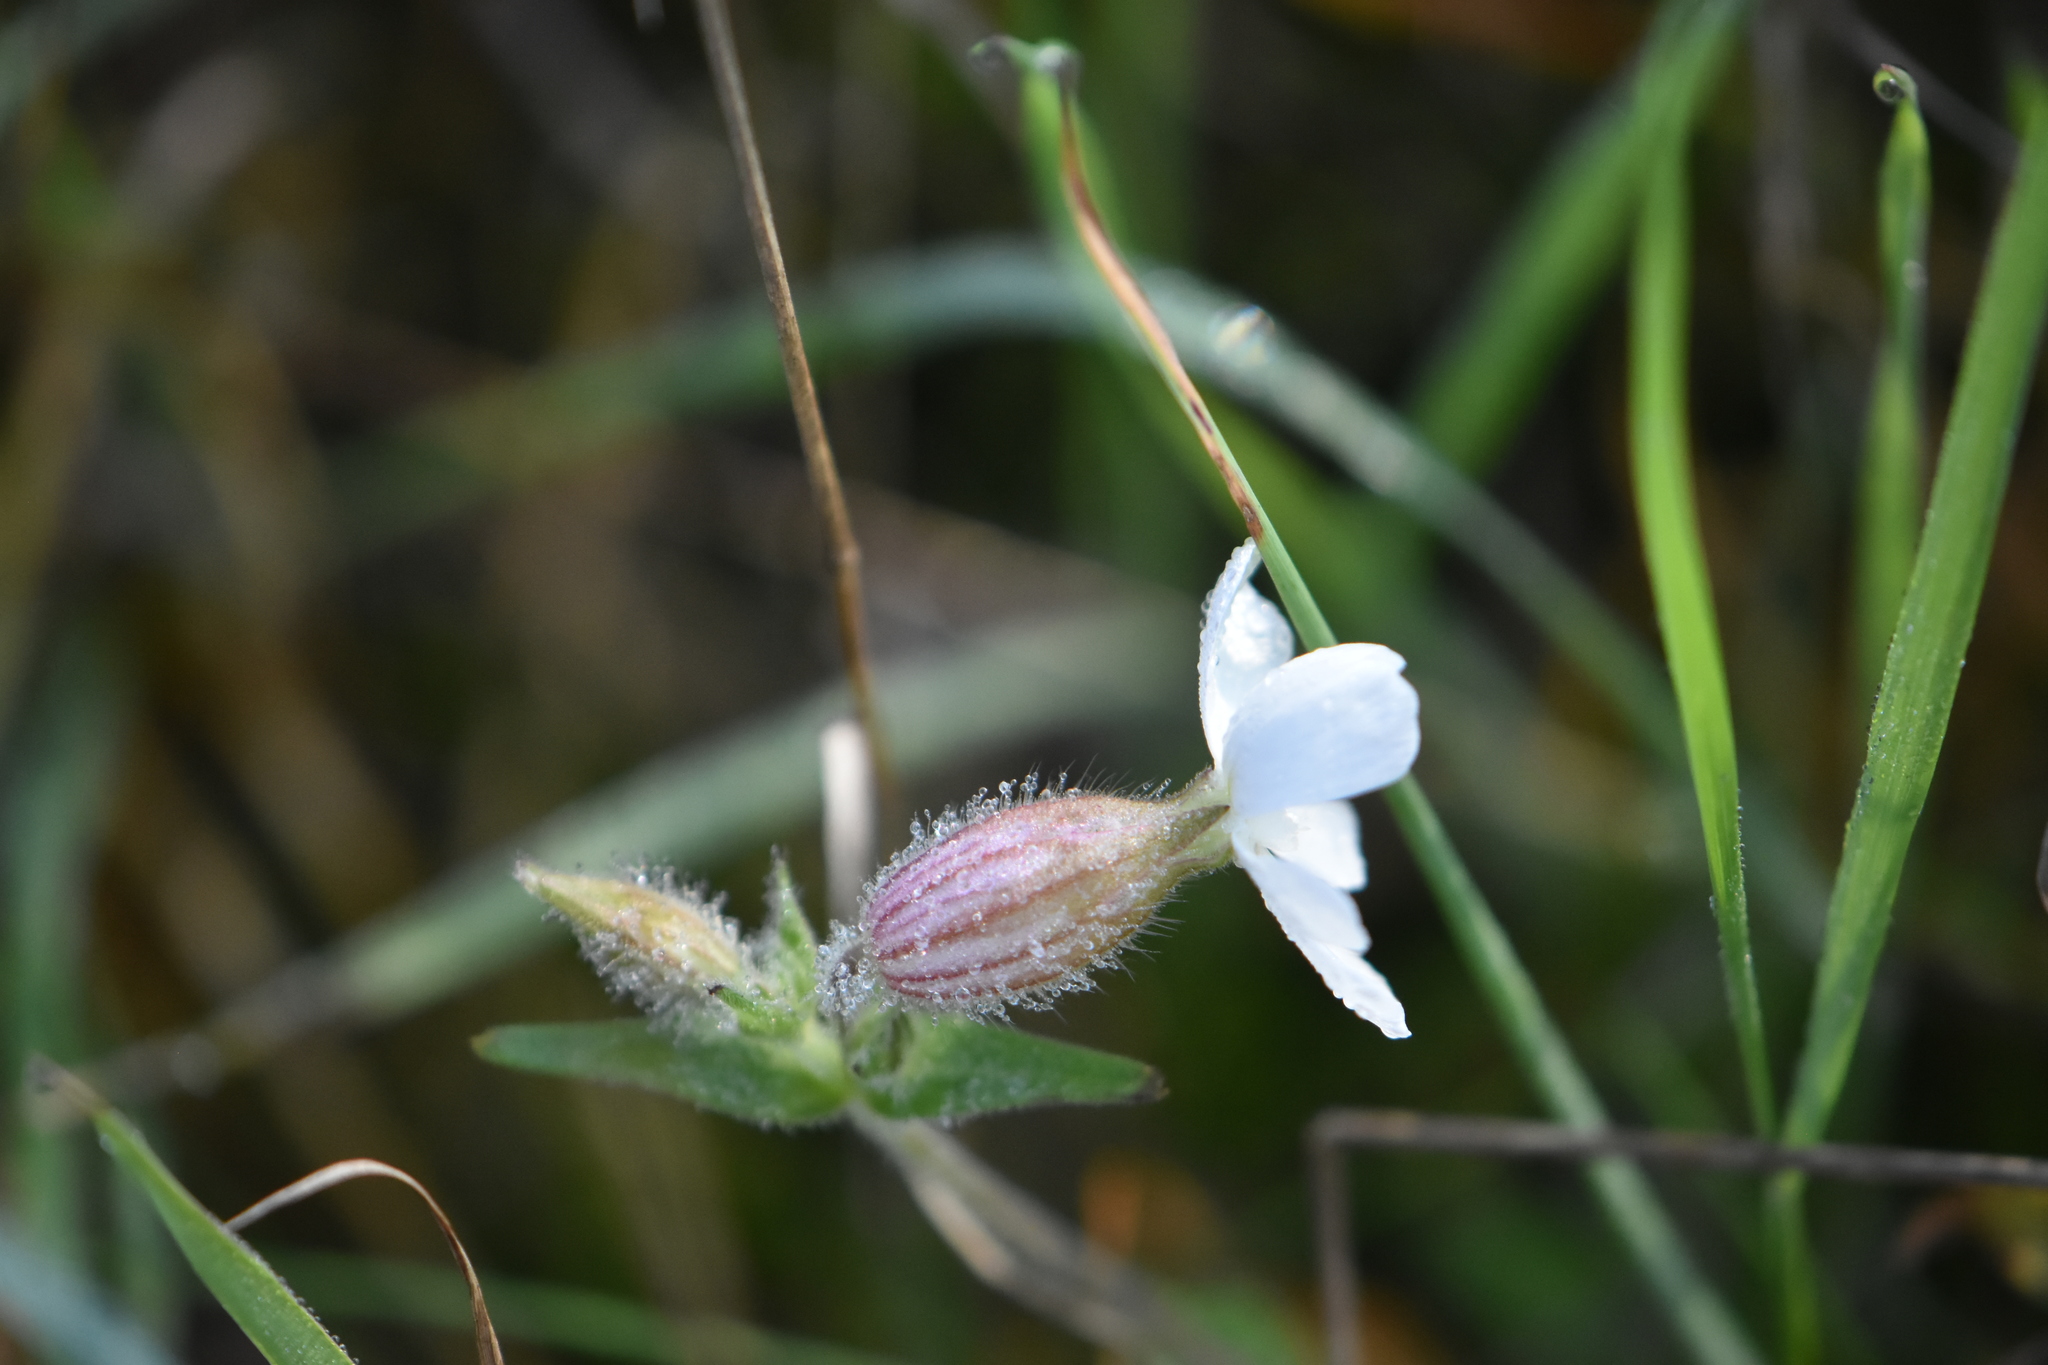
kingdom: Plantae
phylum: Tracheophyta
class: Magnoliopsida
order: Caryophyllales
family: Caryophyllaceae
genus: Silene
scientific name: Silene latifolia
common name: White campion
